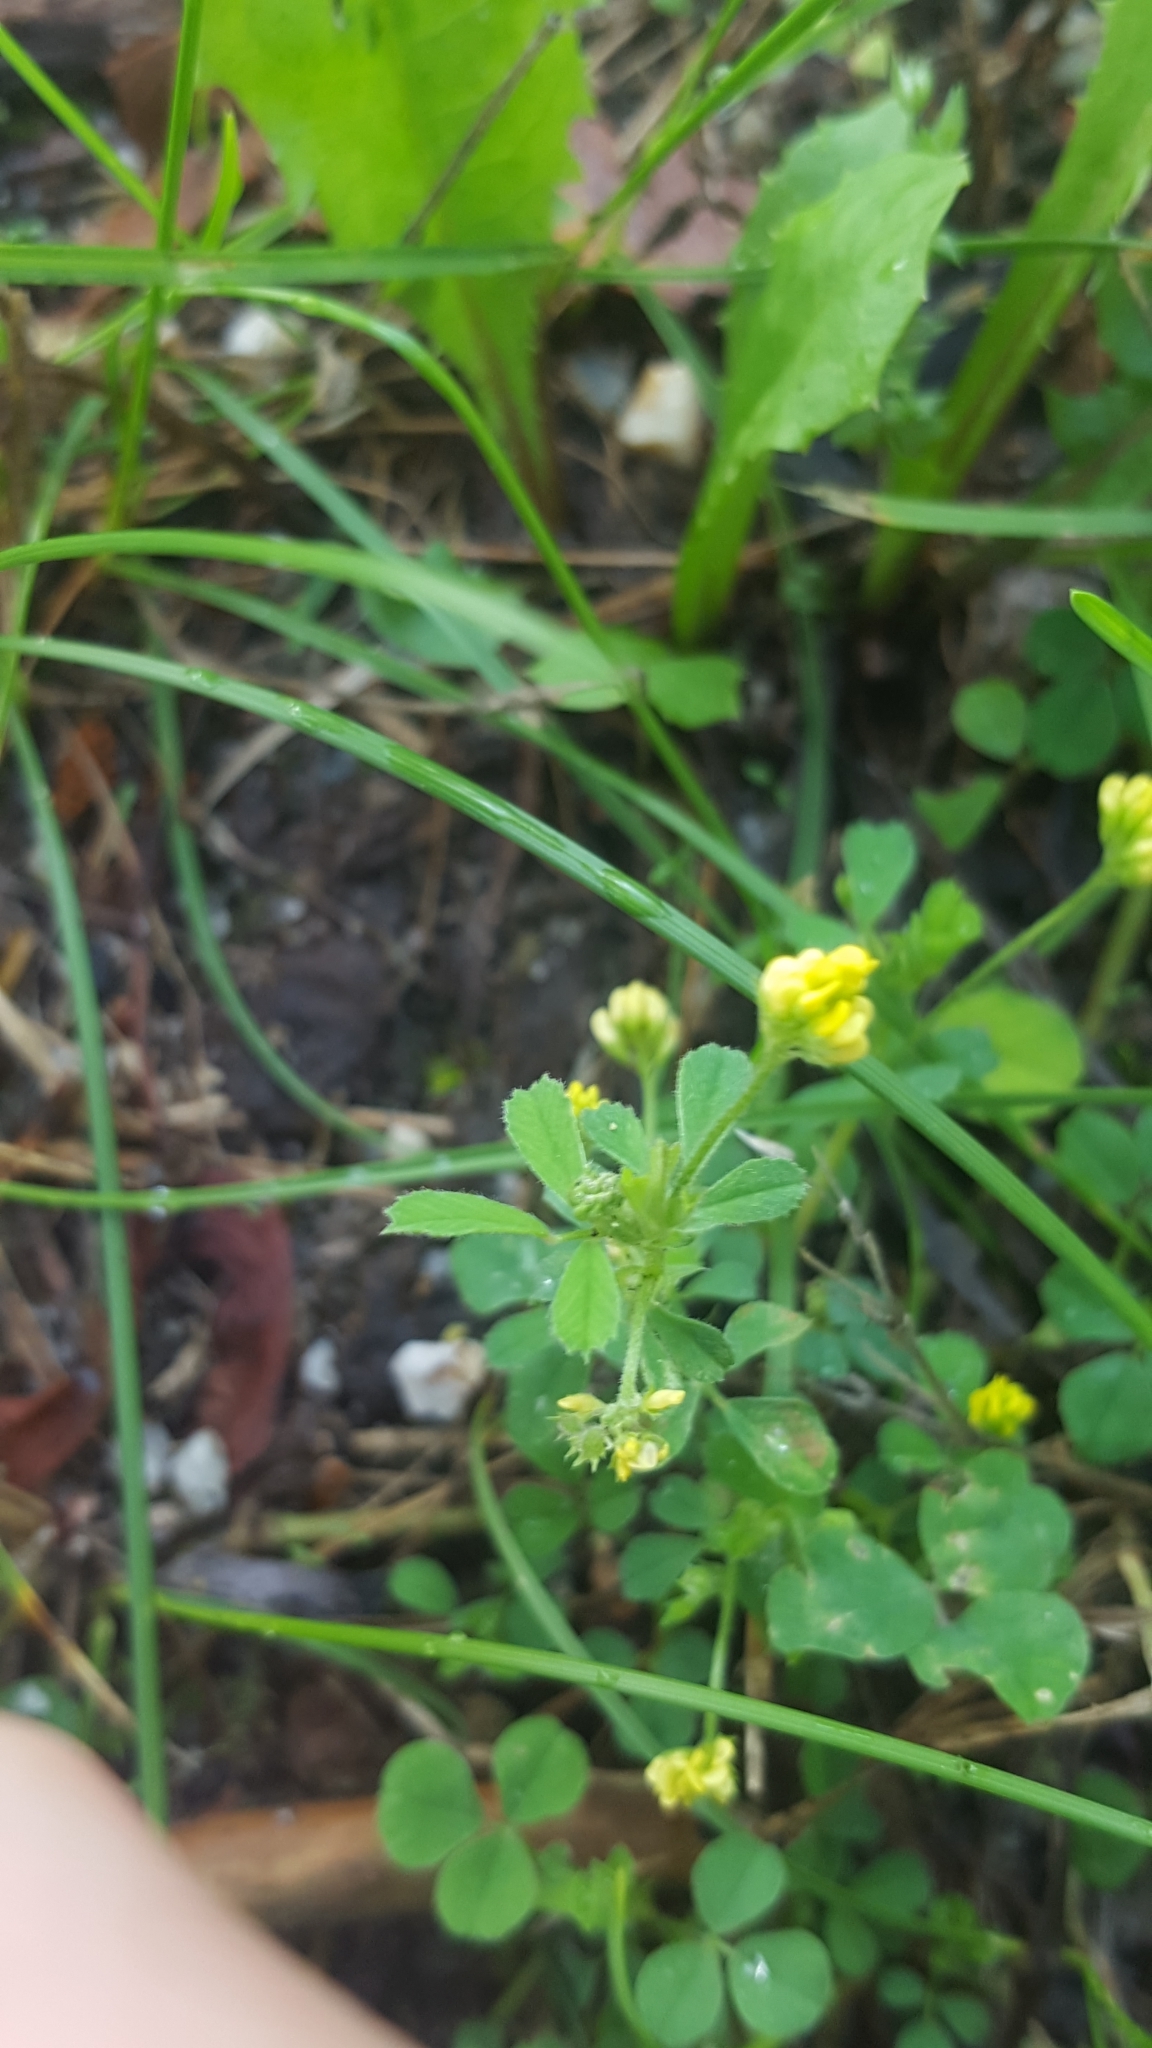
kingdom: Plantae
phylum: Tracheophyta
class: Magnoliopsida
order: Fabales
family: Fabaceae
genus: Medicago
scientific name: Medicago lupulina
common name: Black medick
